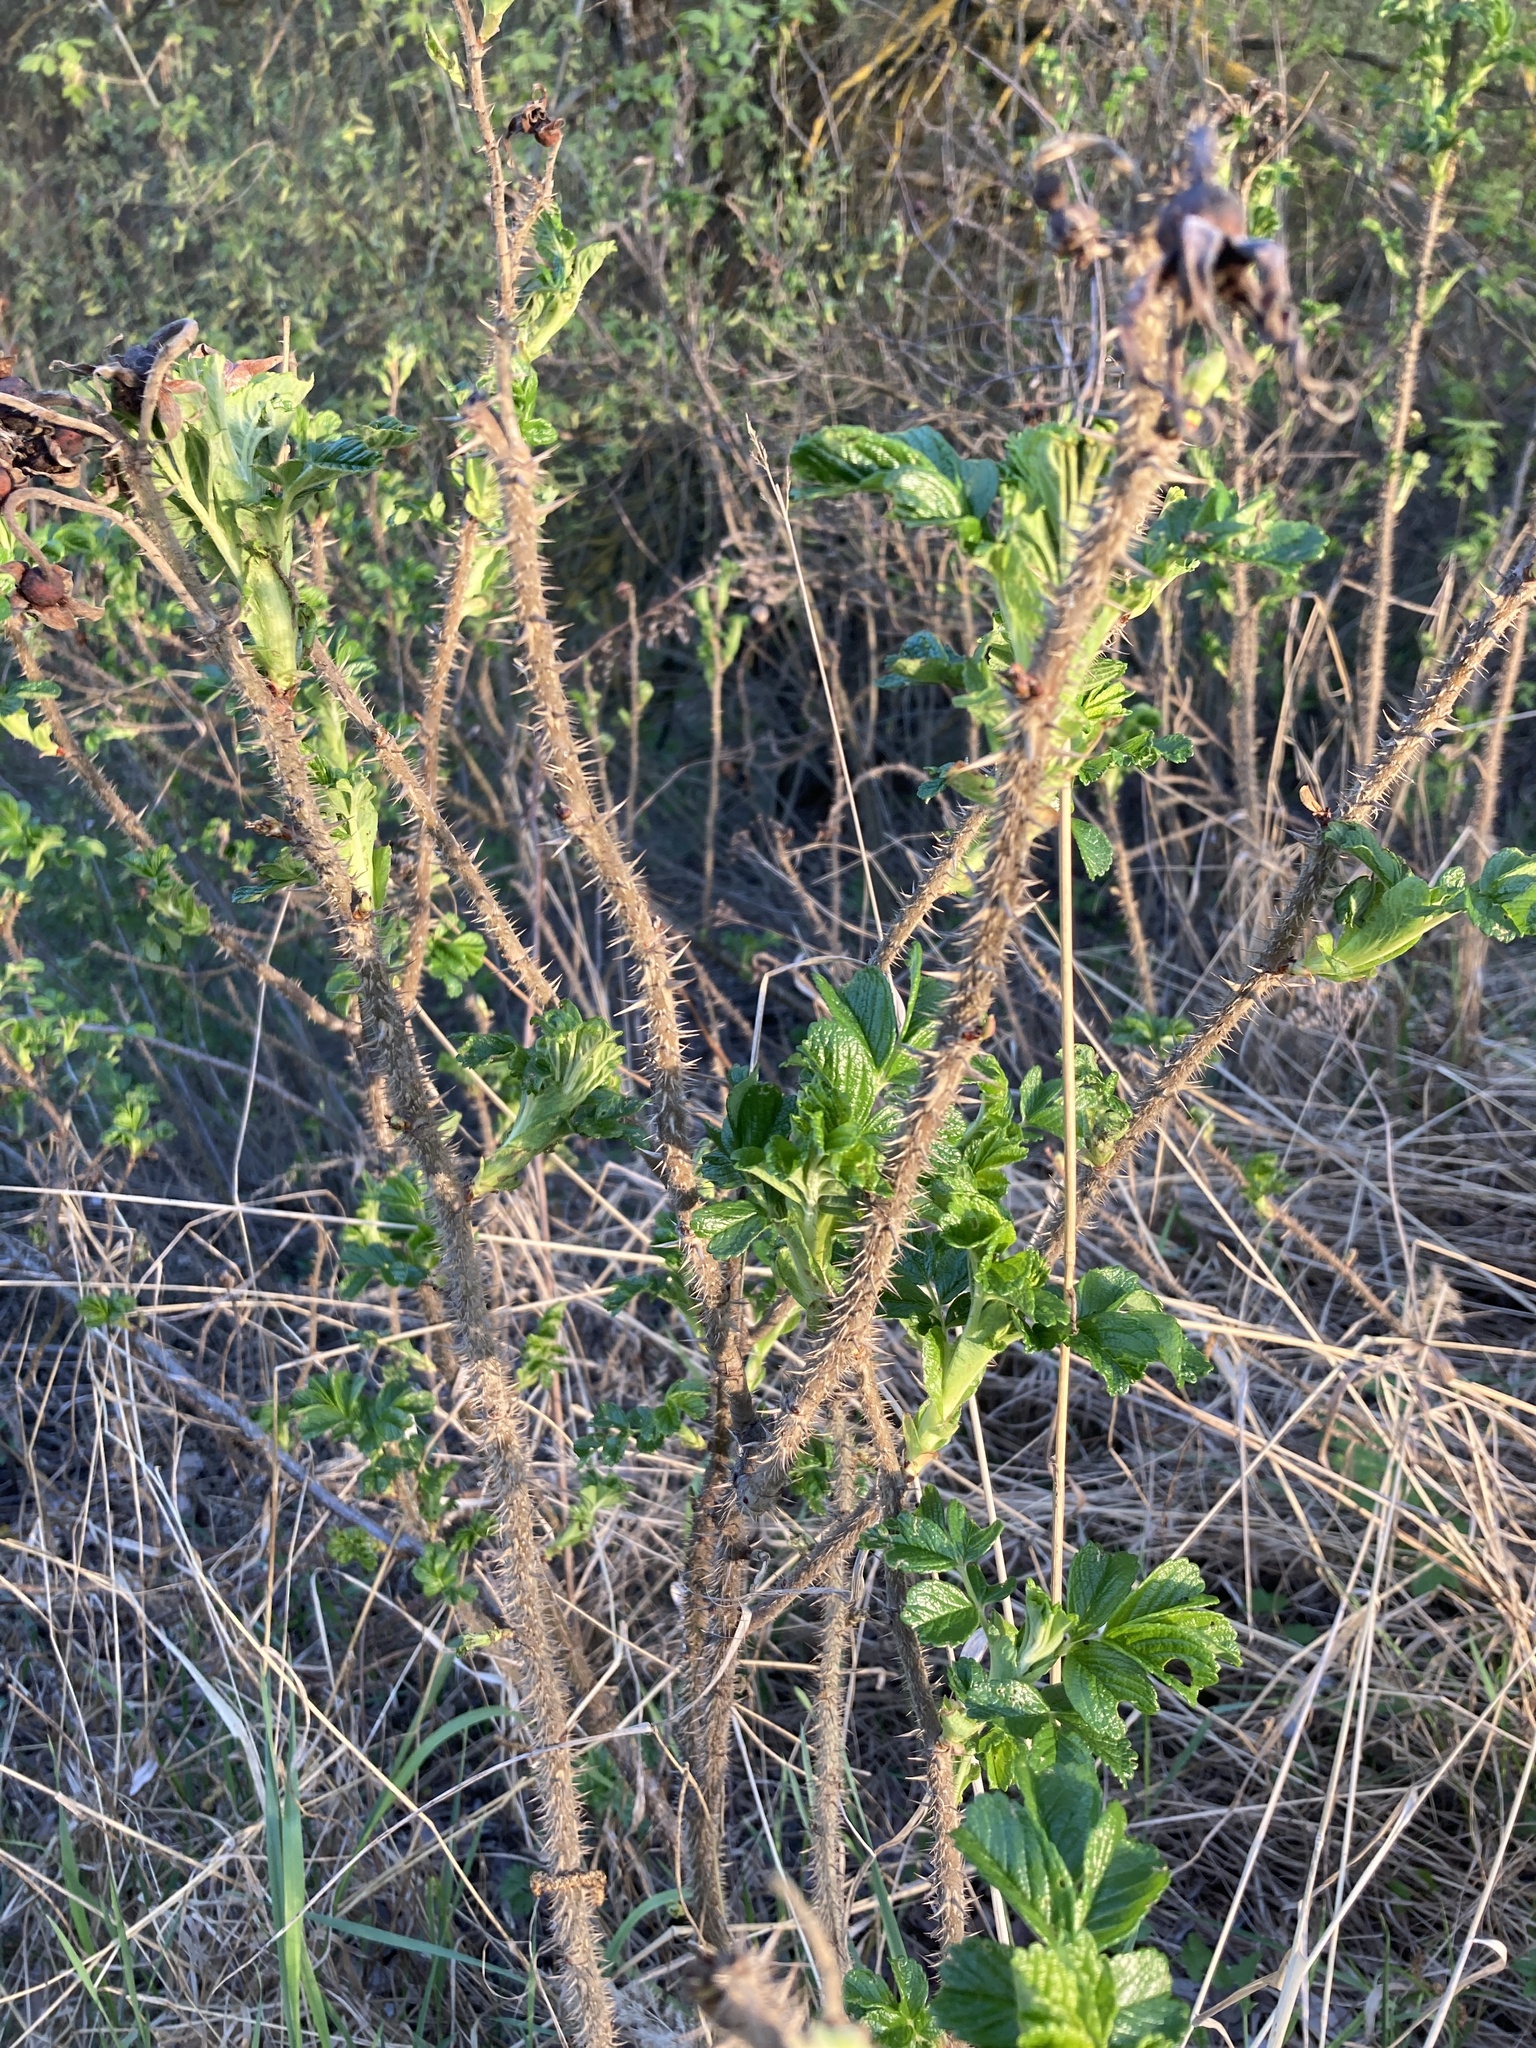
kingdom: Plantae
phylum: Tracheophyta
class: Magnoliopsida
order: Rosales
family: Rosaceae
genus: Rosa
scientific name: Rosa rugosa
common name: Japanese rose
